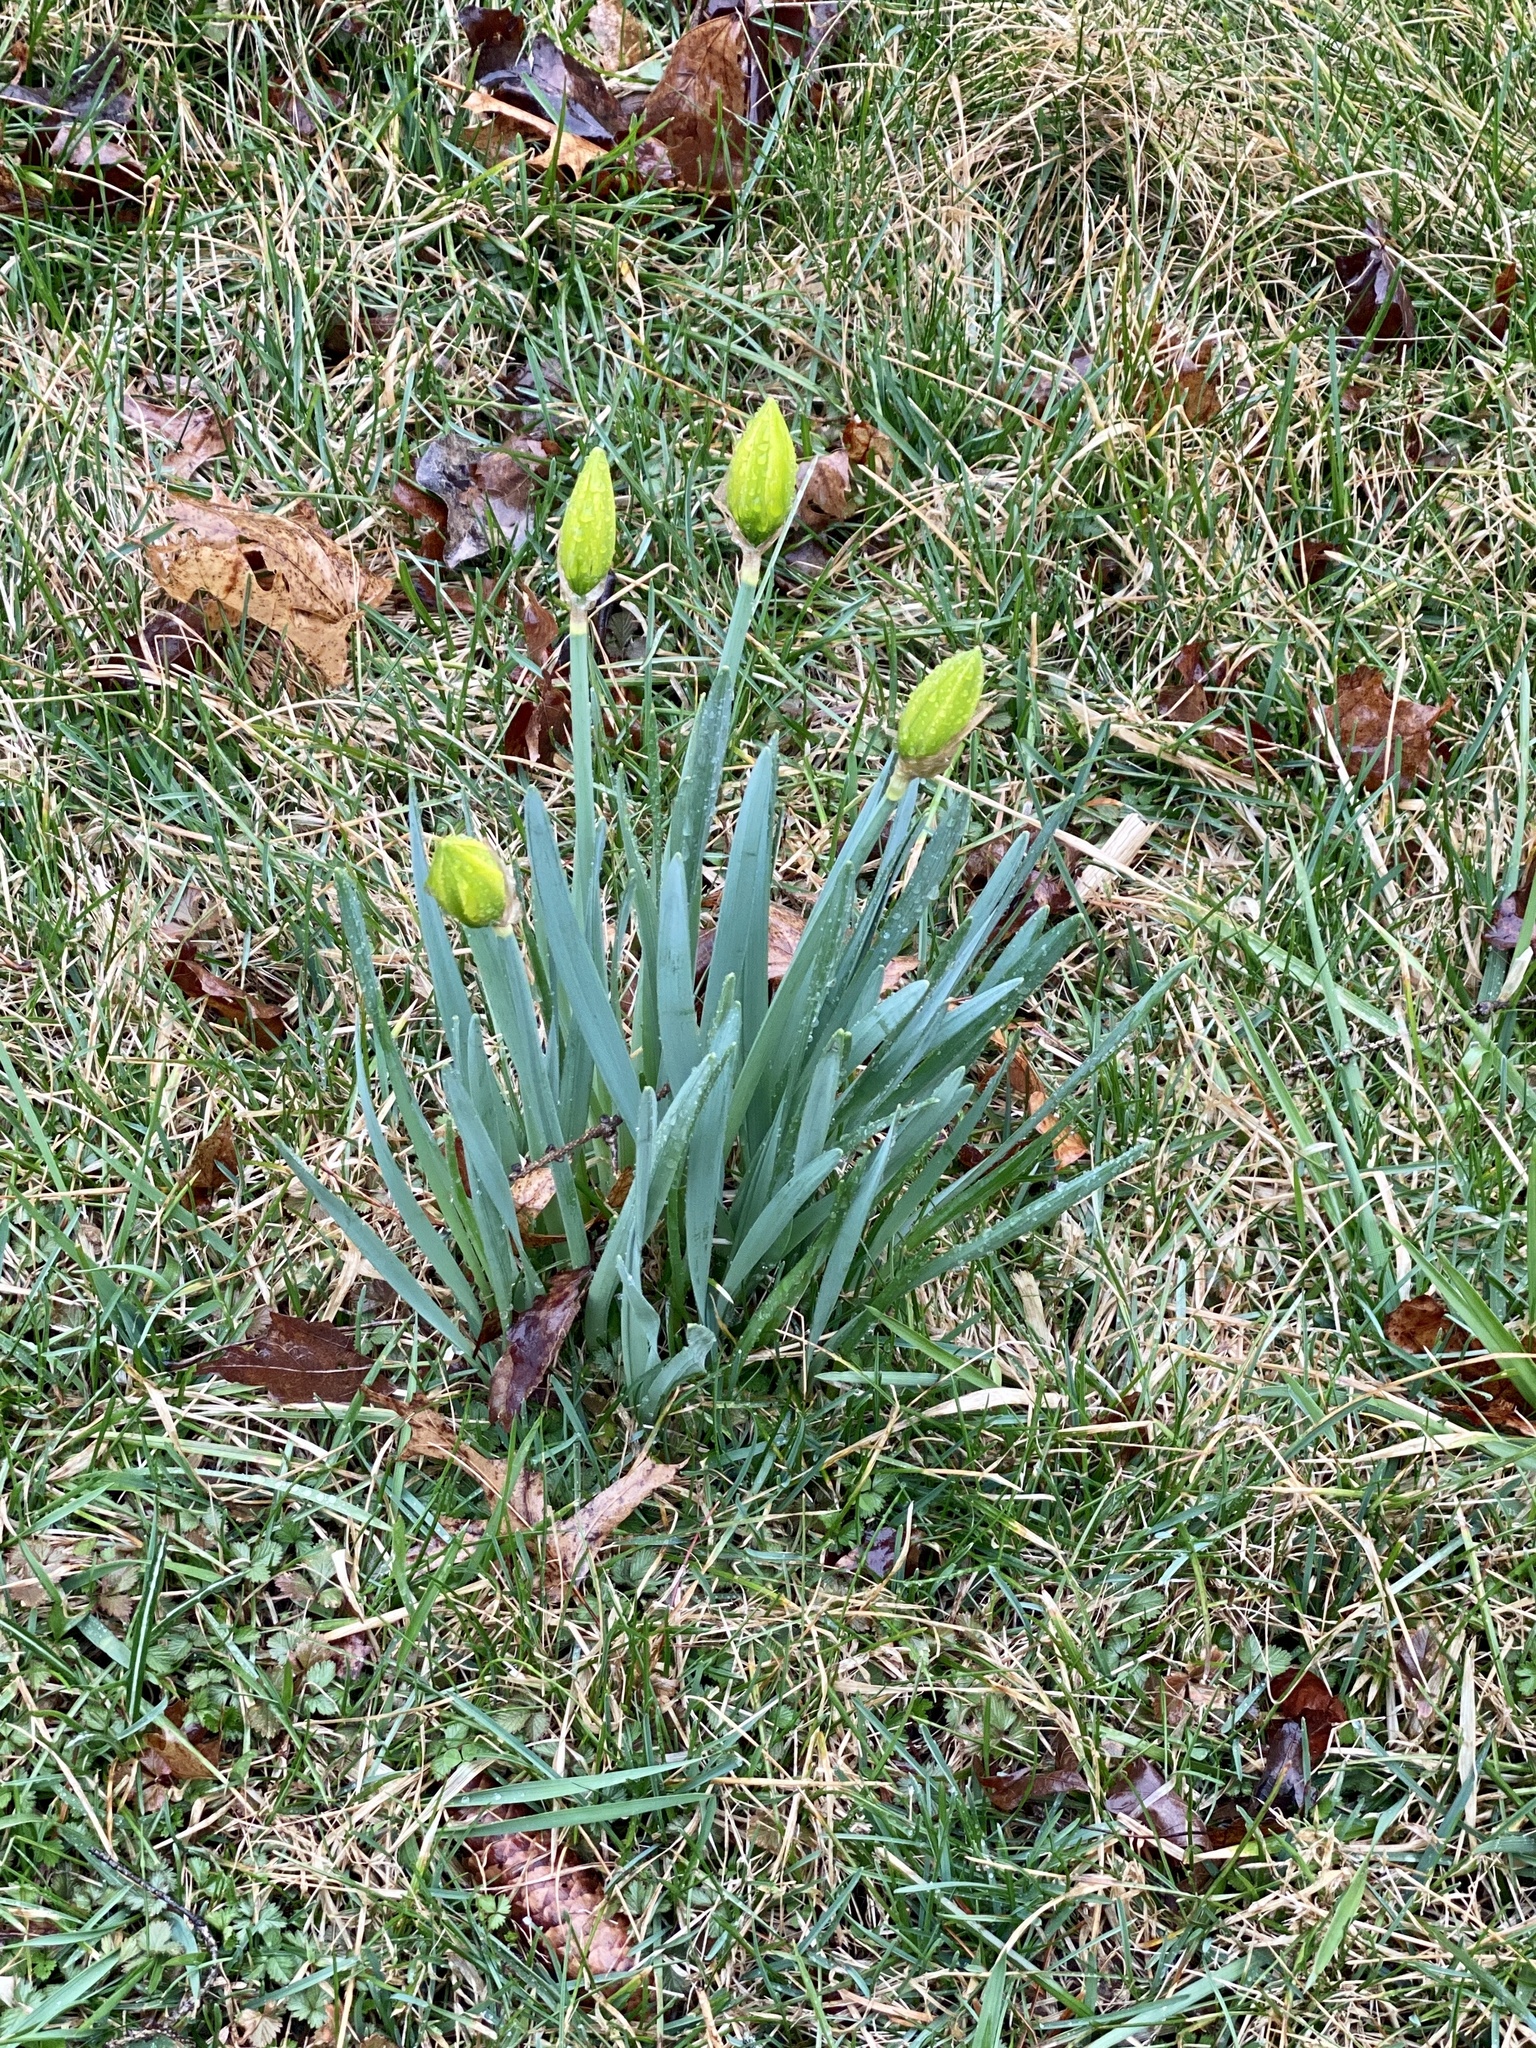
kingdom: Plantae
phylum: Tracheophyta
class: Liliopsida
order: Asparagales
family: Amaryllidaceae
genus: Narcissus
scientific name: Narcissus
